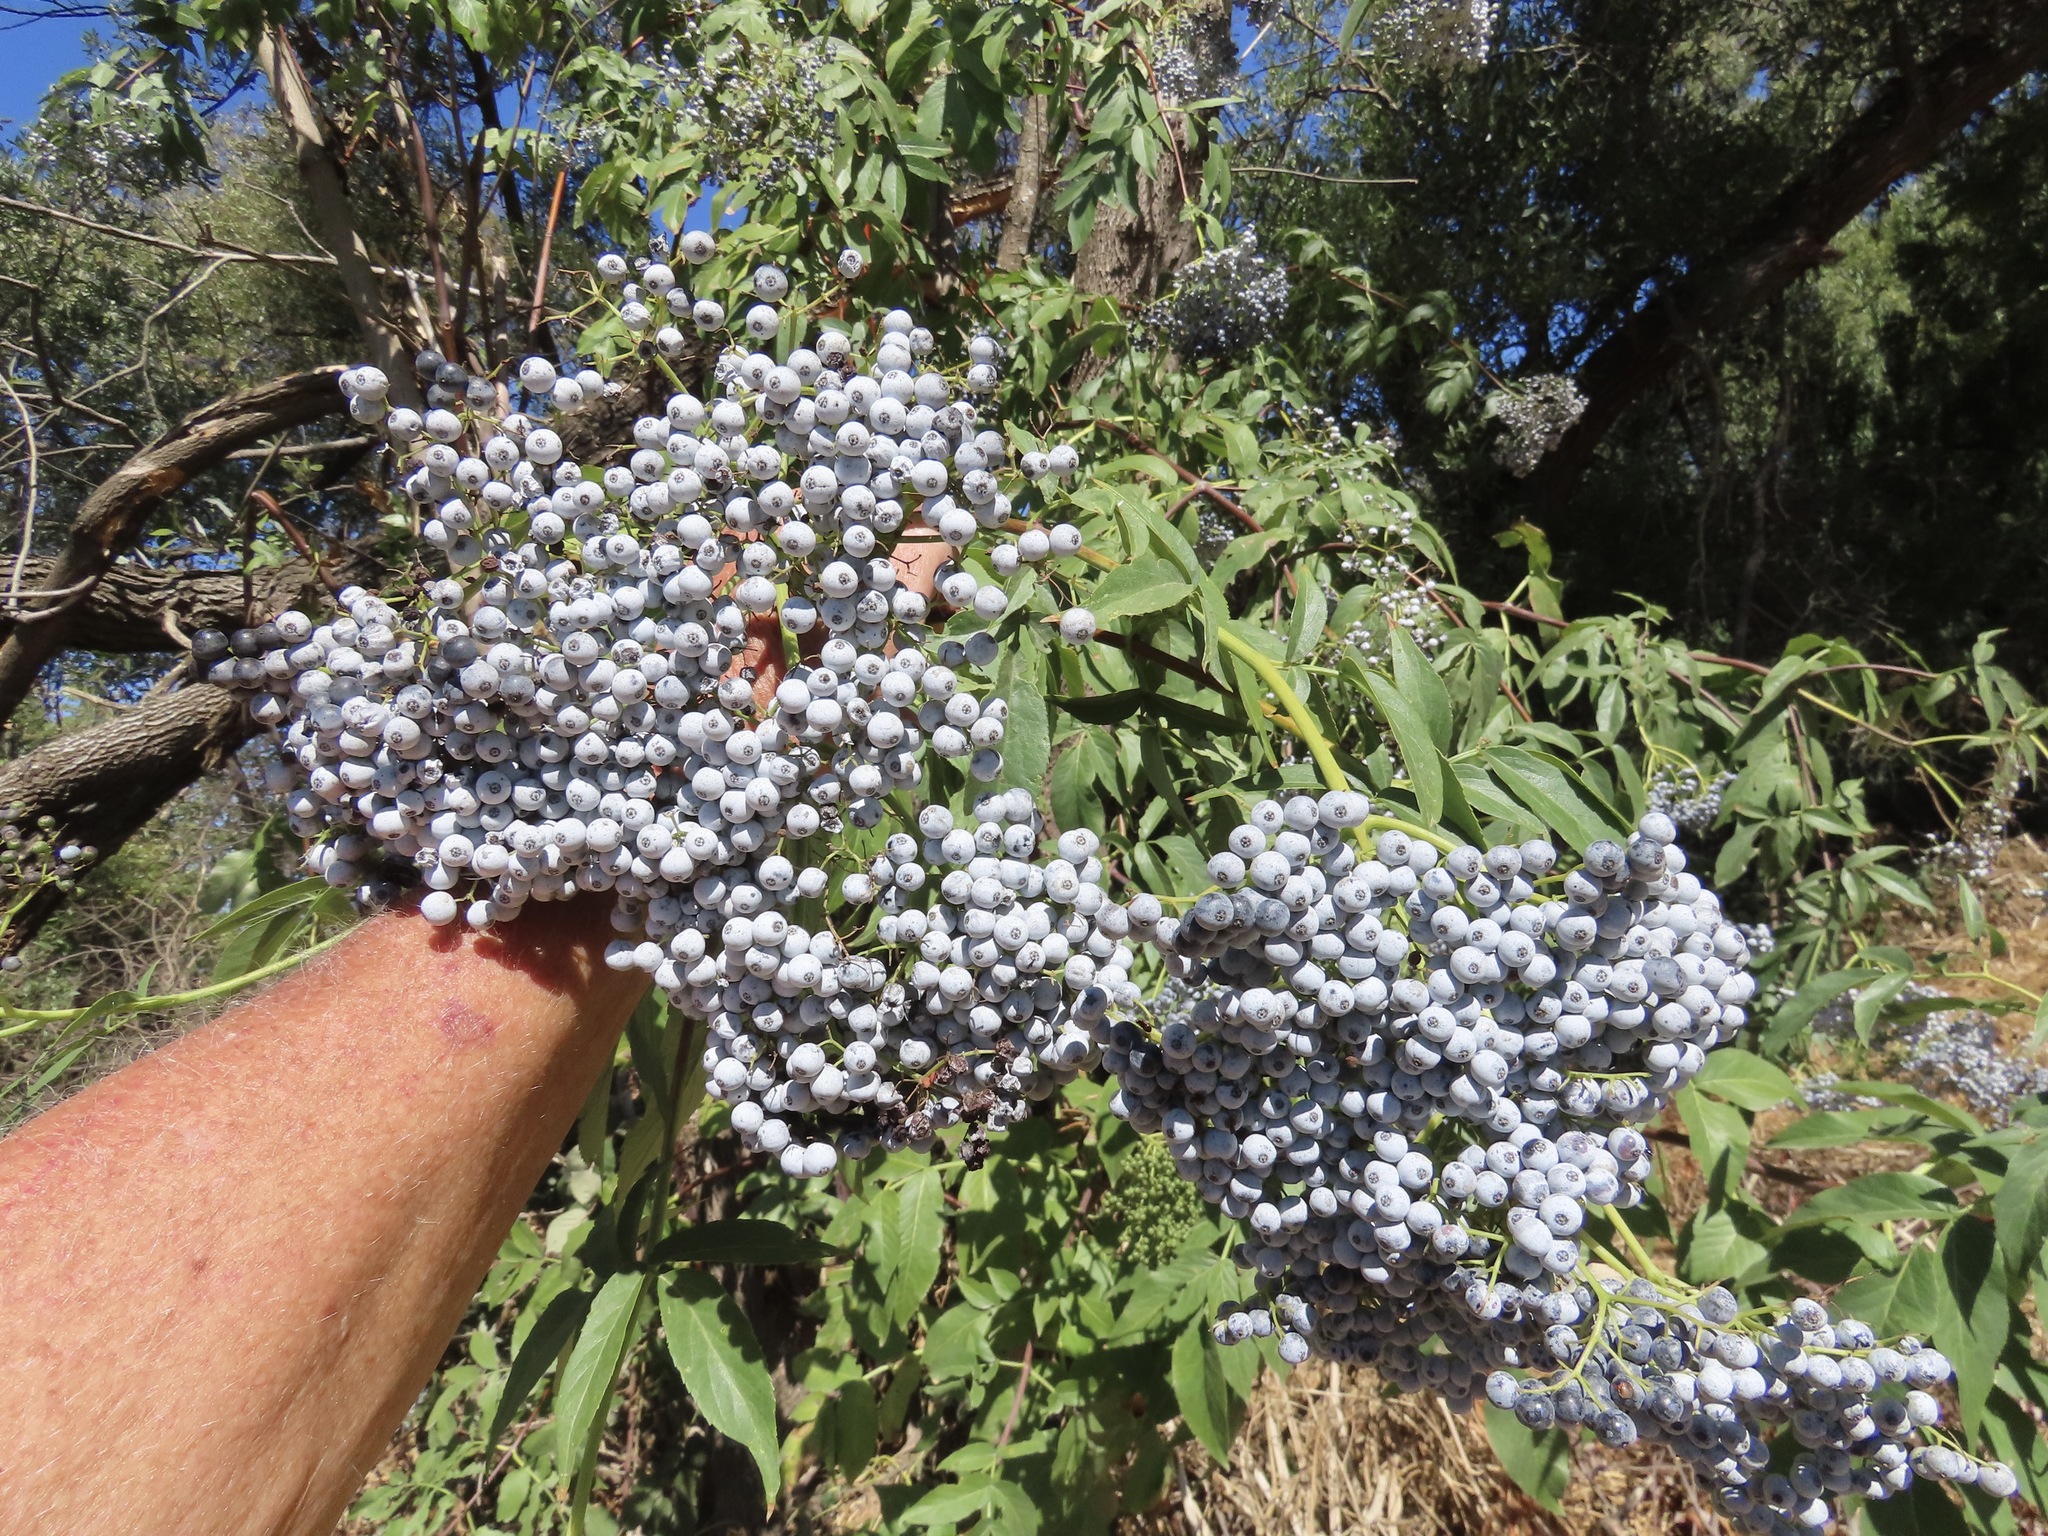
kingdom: Plantae
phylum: Tracheophyta
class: Magnoliopsida
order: Dipsacales
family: Viburnaceae
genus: Sambucus
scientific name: Sambucus cerulea
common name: Blue elder
